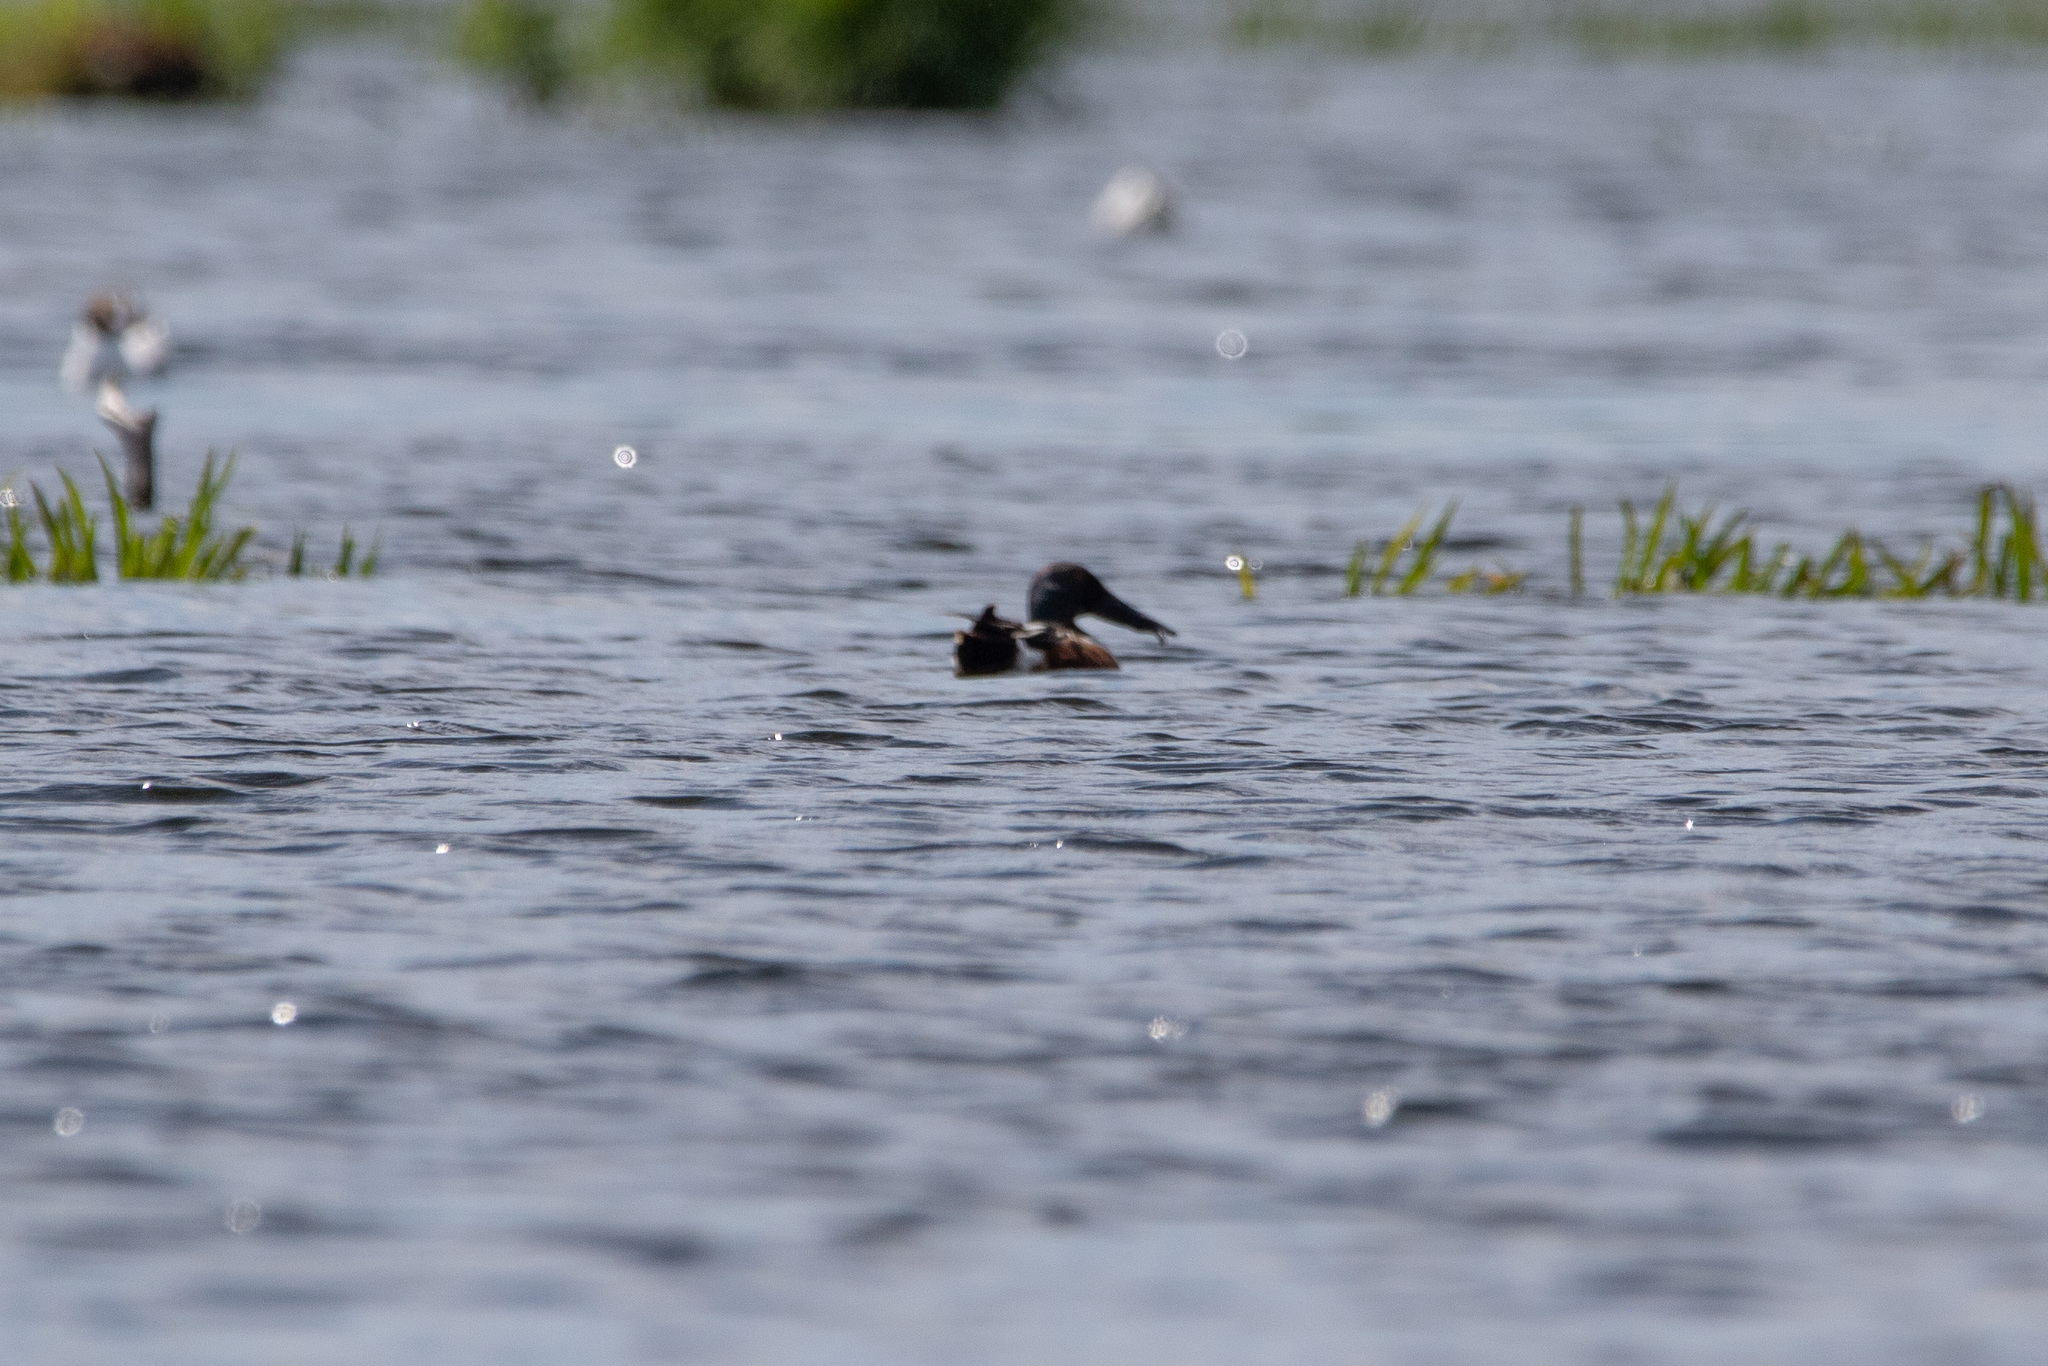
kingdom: Animalia
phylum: Chordata
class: Aves
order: Anseriformes
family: Anatidae
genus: Spatula
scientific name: Spatula clypeata
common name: Northern shoveler
